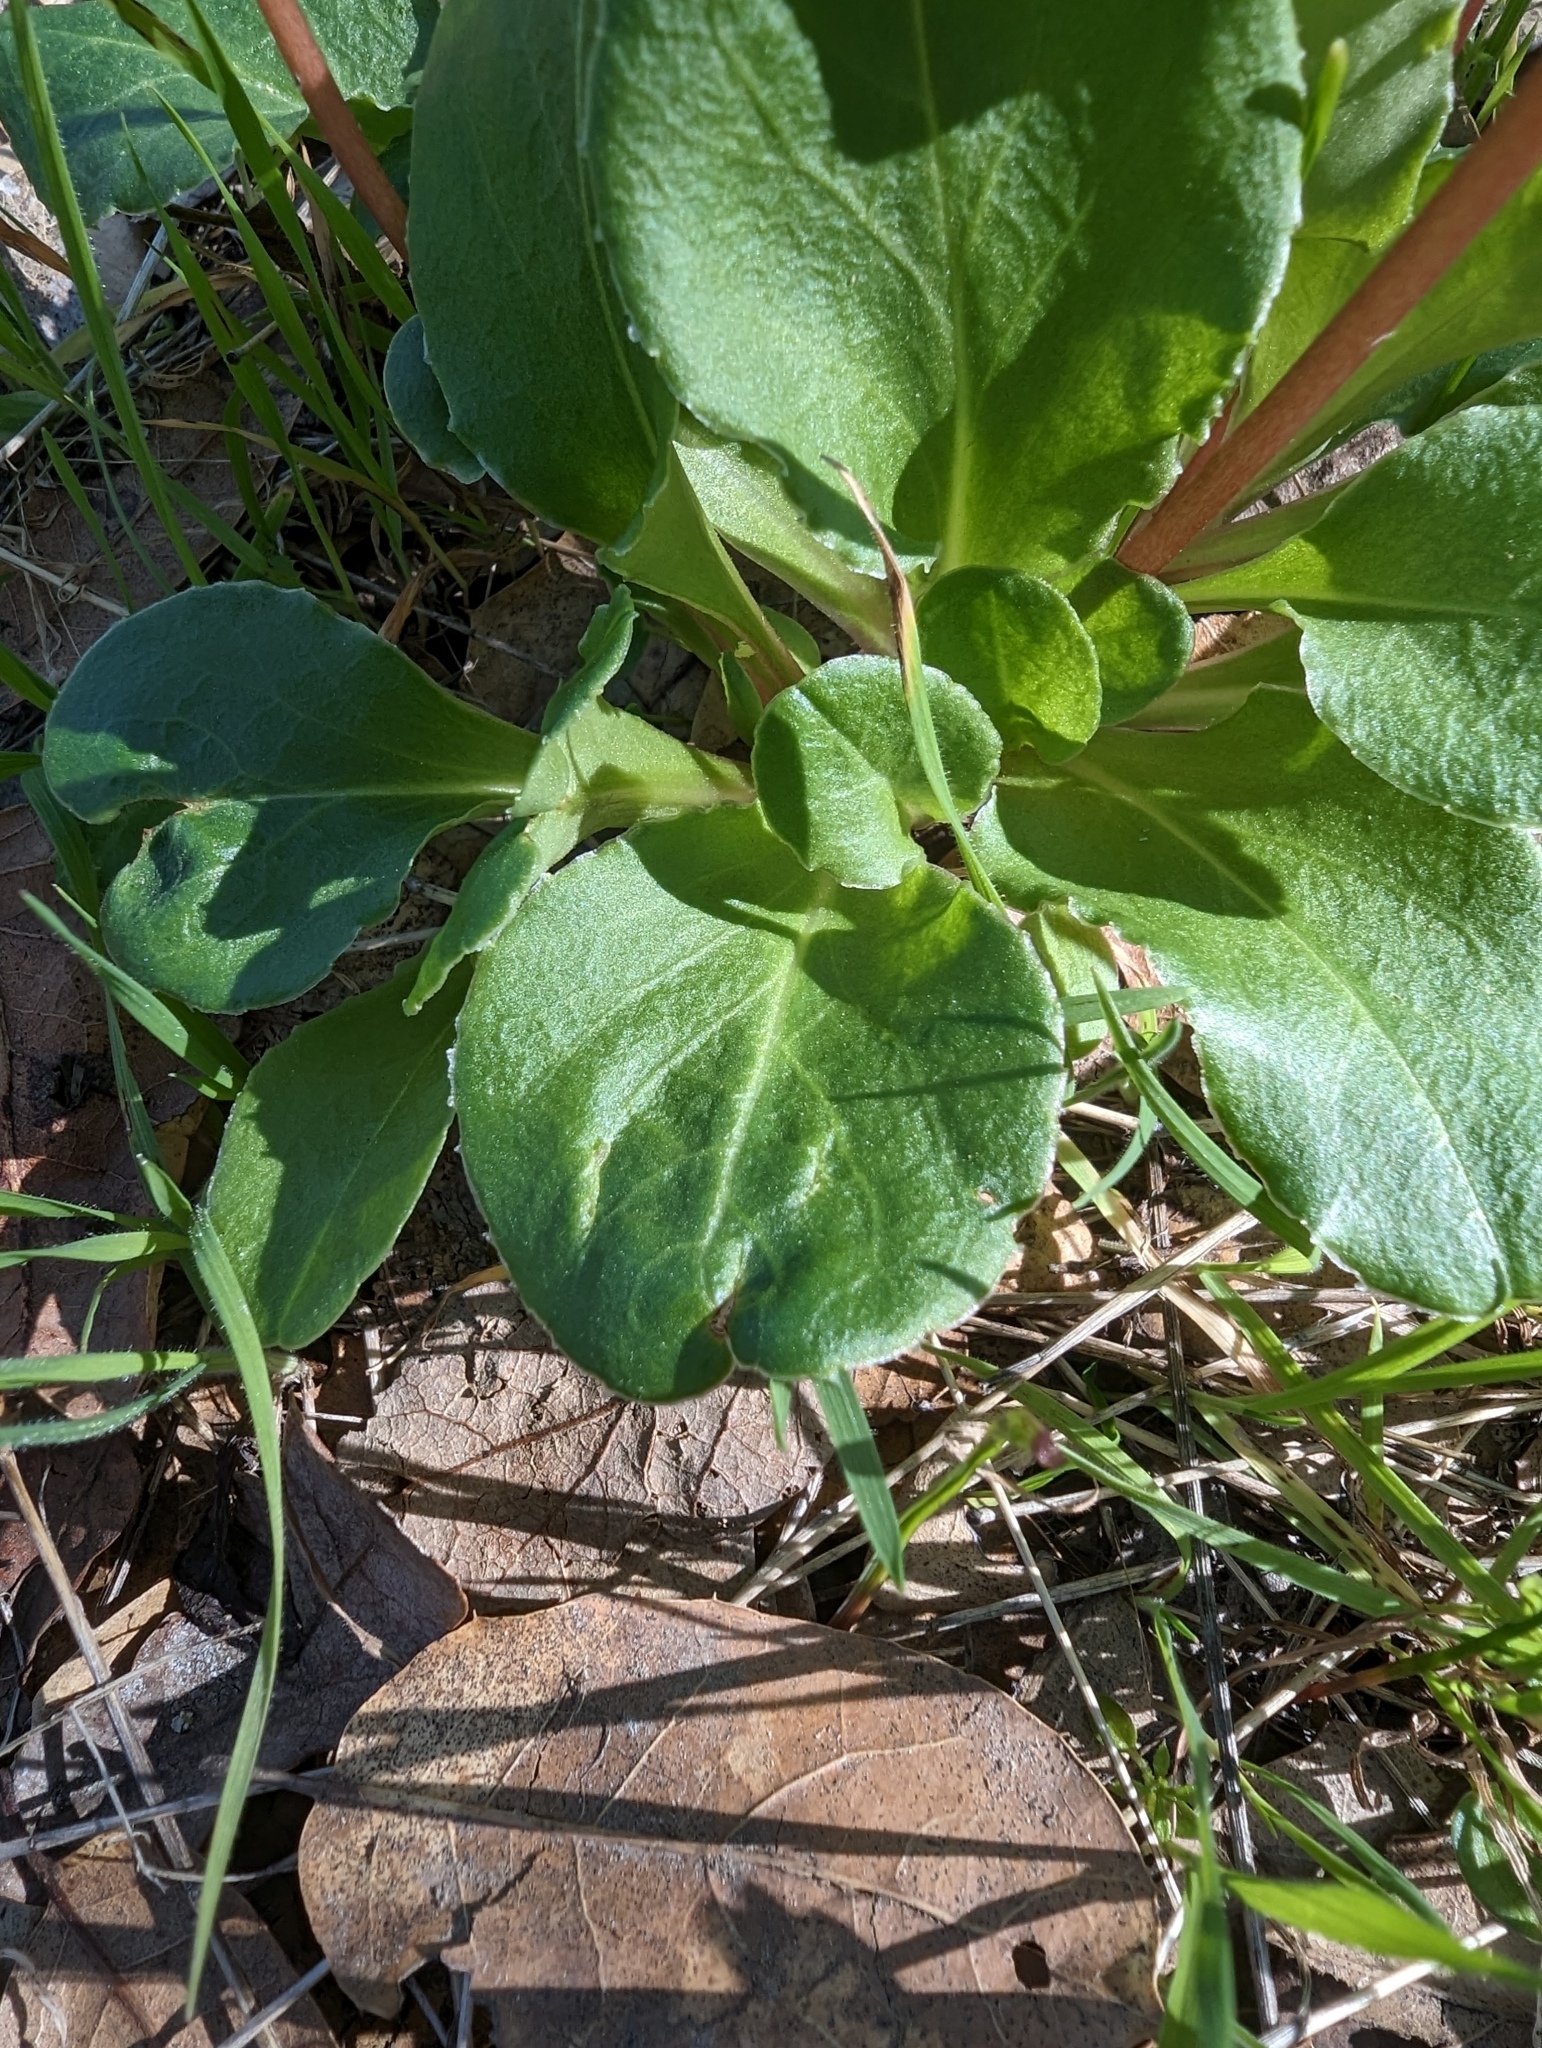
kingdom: Plantae
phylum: Tracheophyta
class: Magnoliopsida
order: Ericales
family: Primulaceae
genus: Dodecatheon
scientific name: Dodecatheon hendersonii
